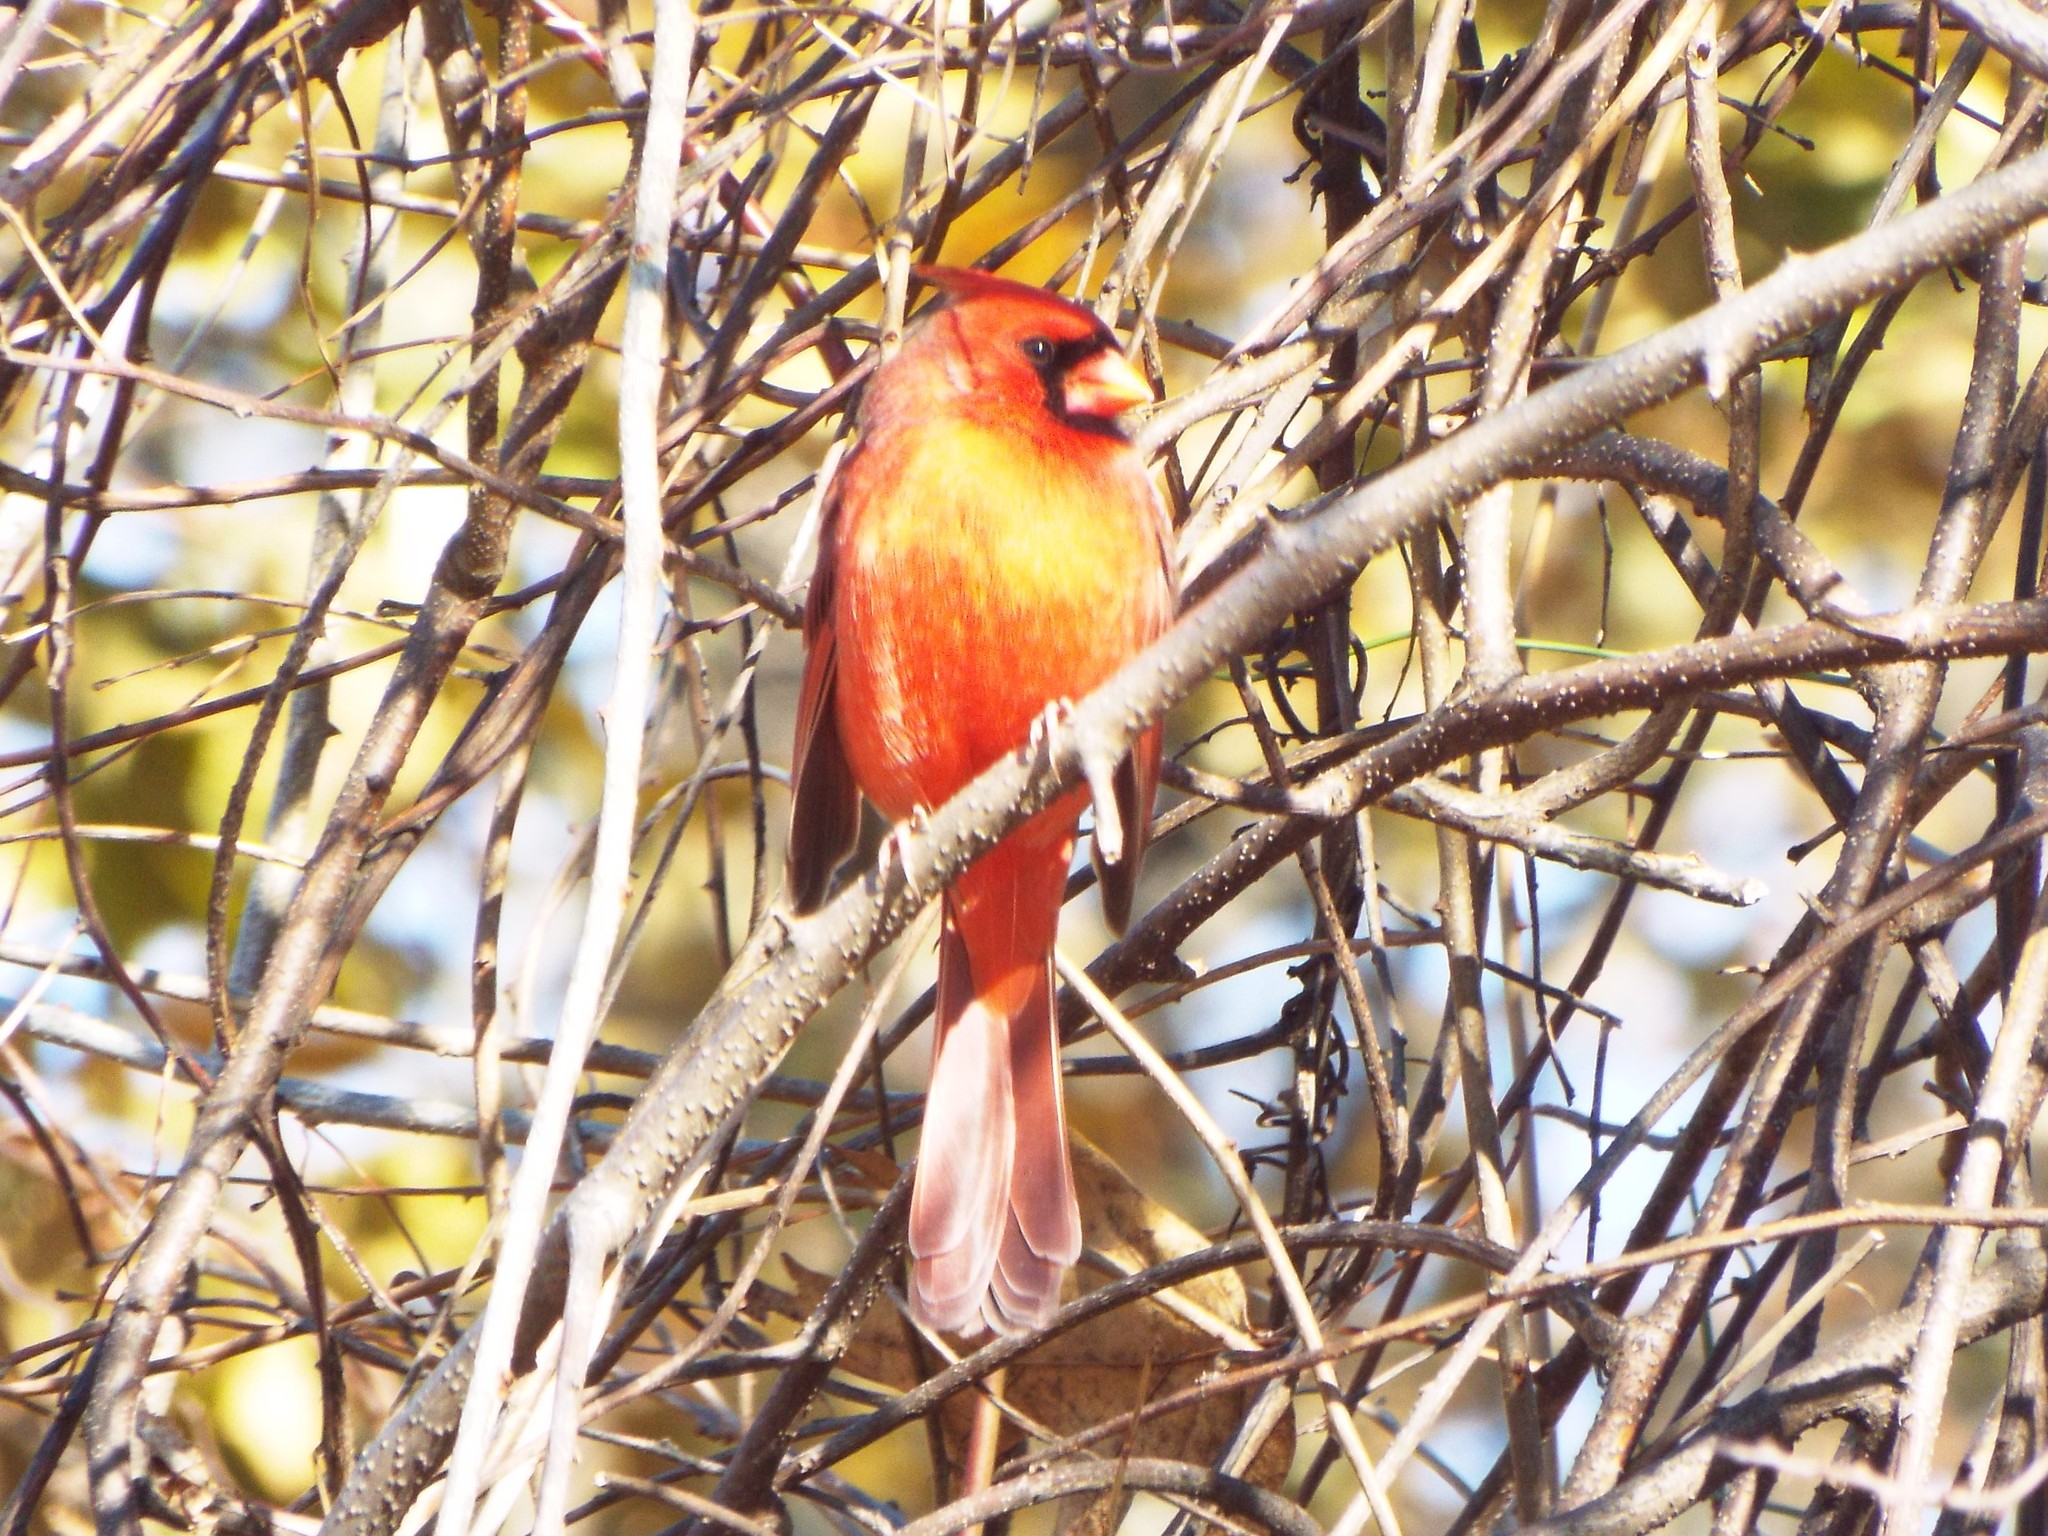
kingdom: Animalia
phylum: Chordata
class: Aves
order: Passeriformes
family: Cardinalidae
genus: Cardinalis
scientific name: Cardinalis cardinalis
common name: Northern cardinal
